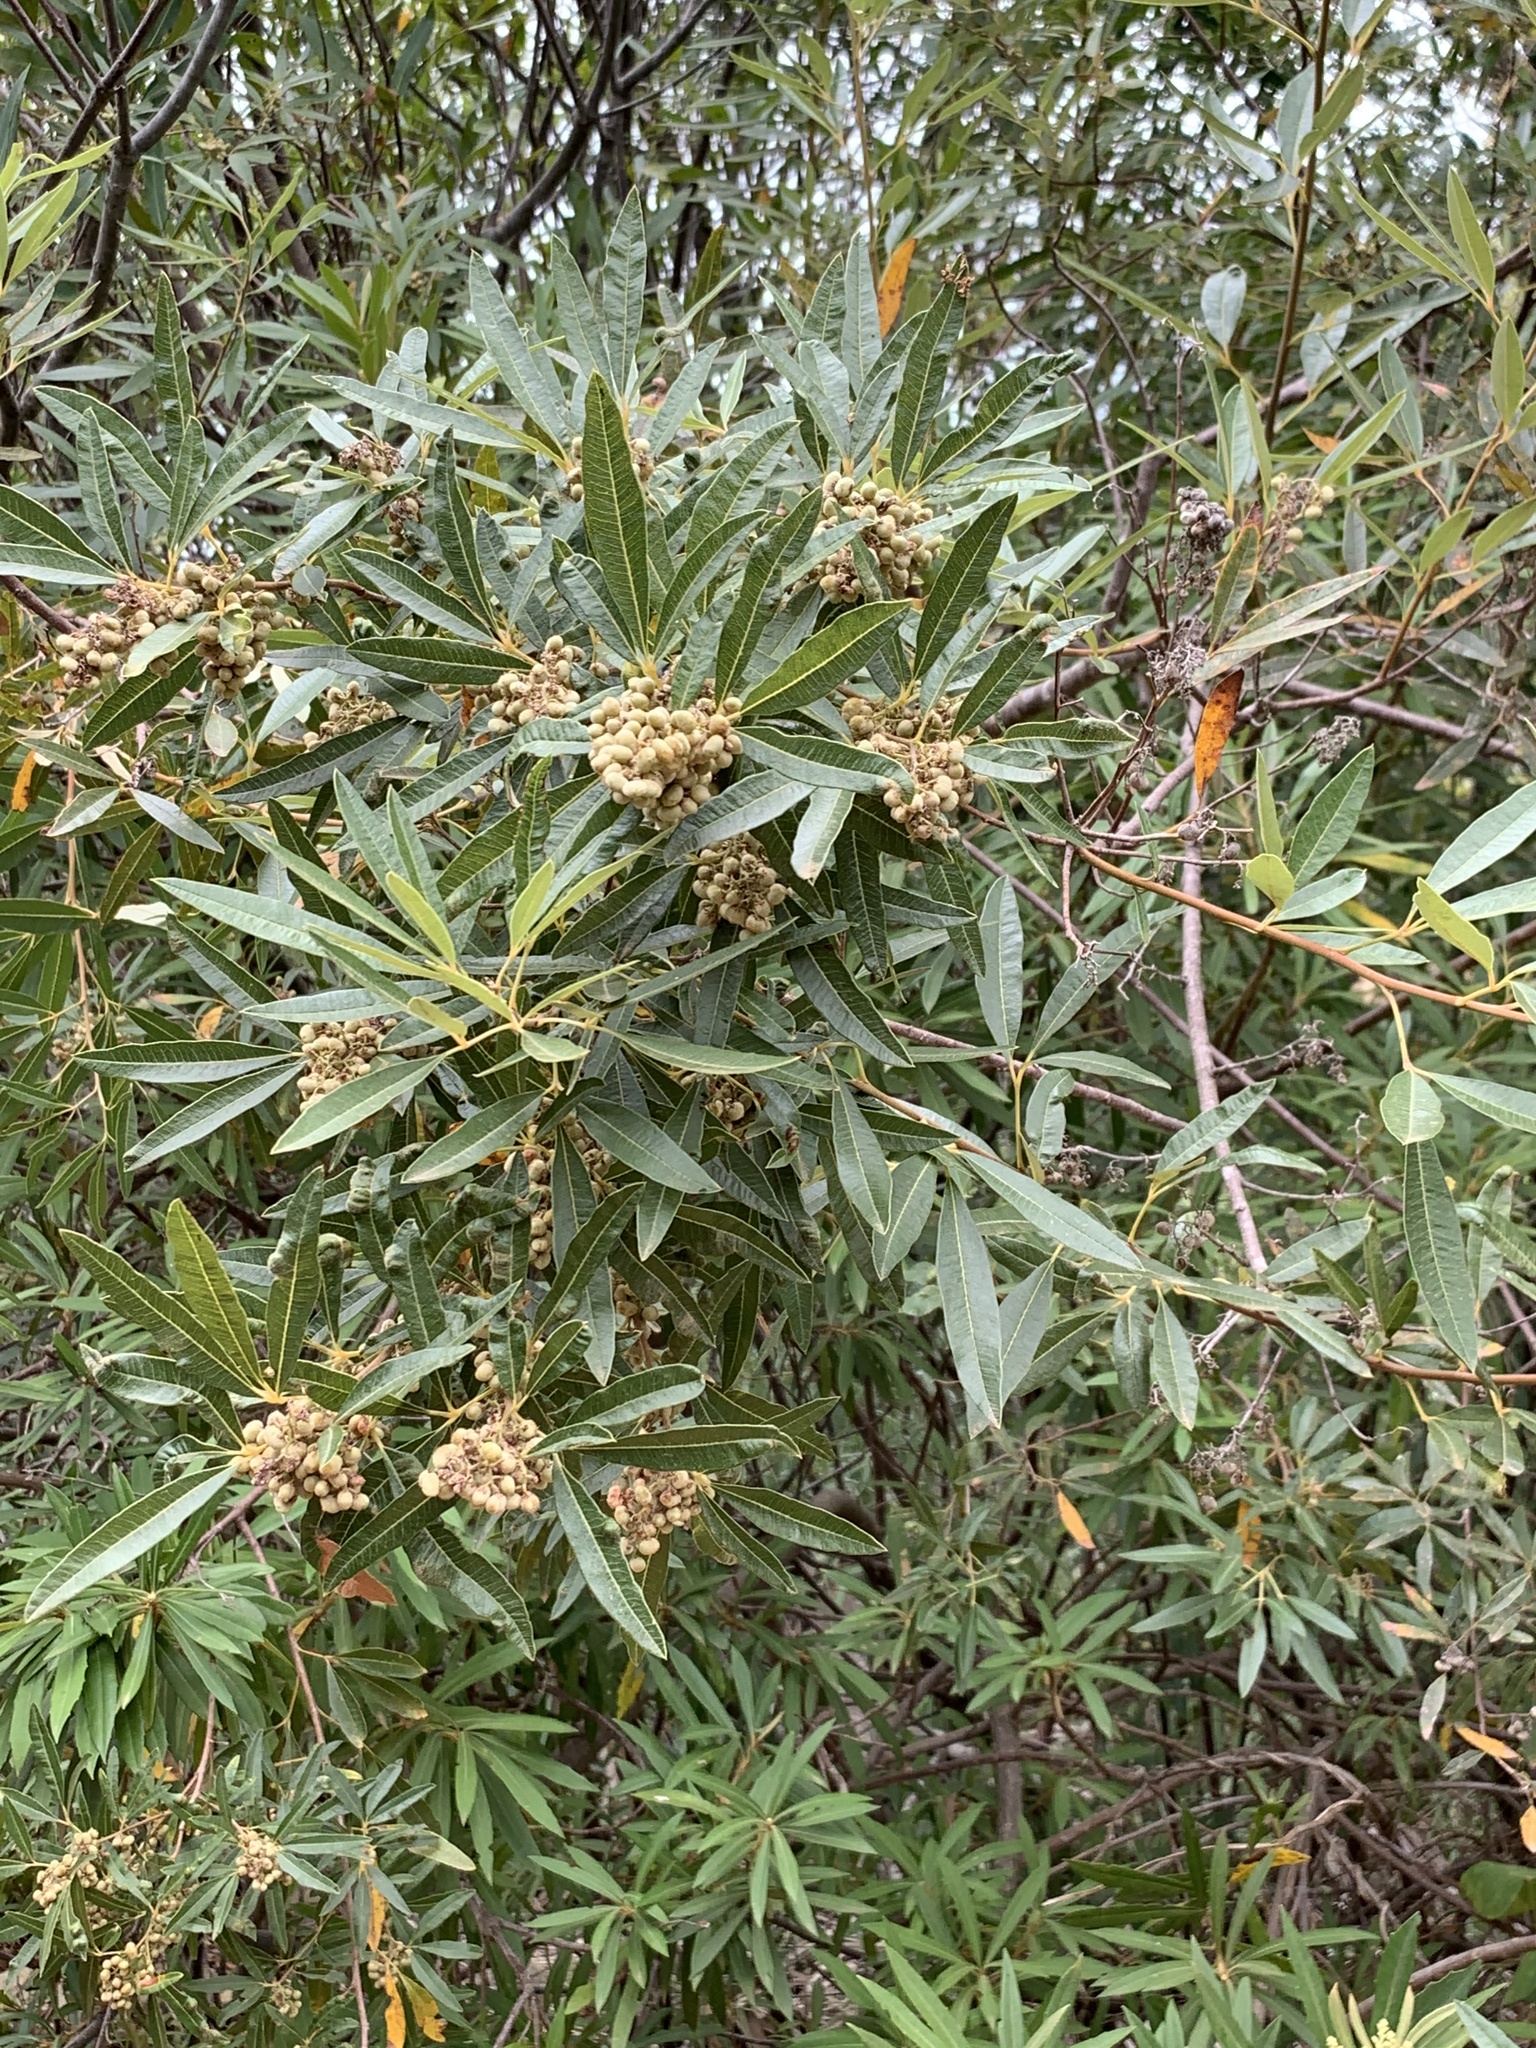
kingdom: Plantae
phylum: Tracheophyta
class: Magnoliopsida
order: Sapindales
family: Anacardiaceae
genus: Searsia
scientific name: Searsia angustifolia
